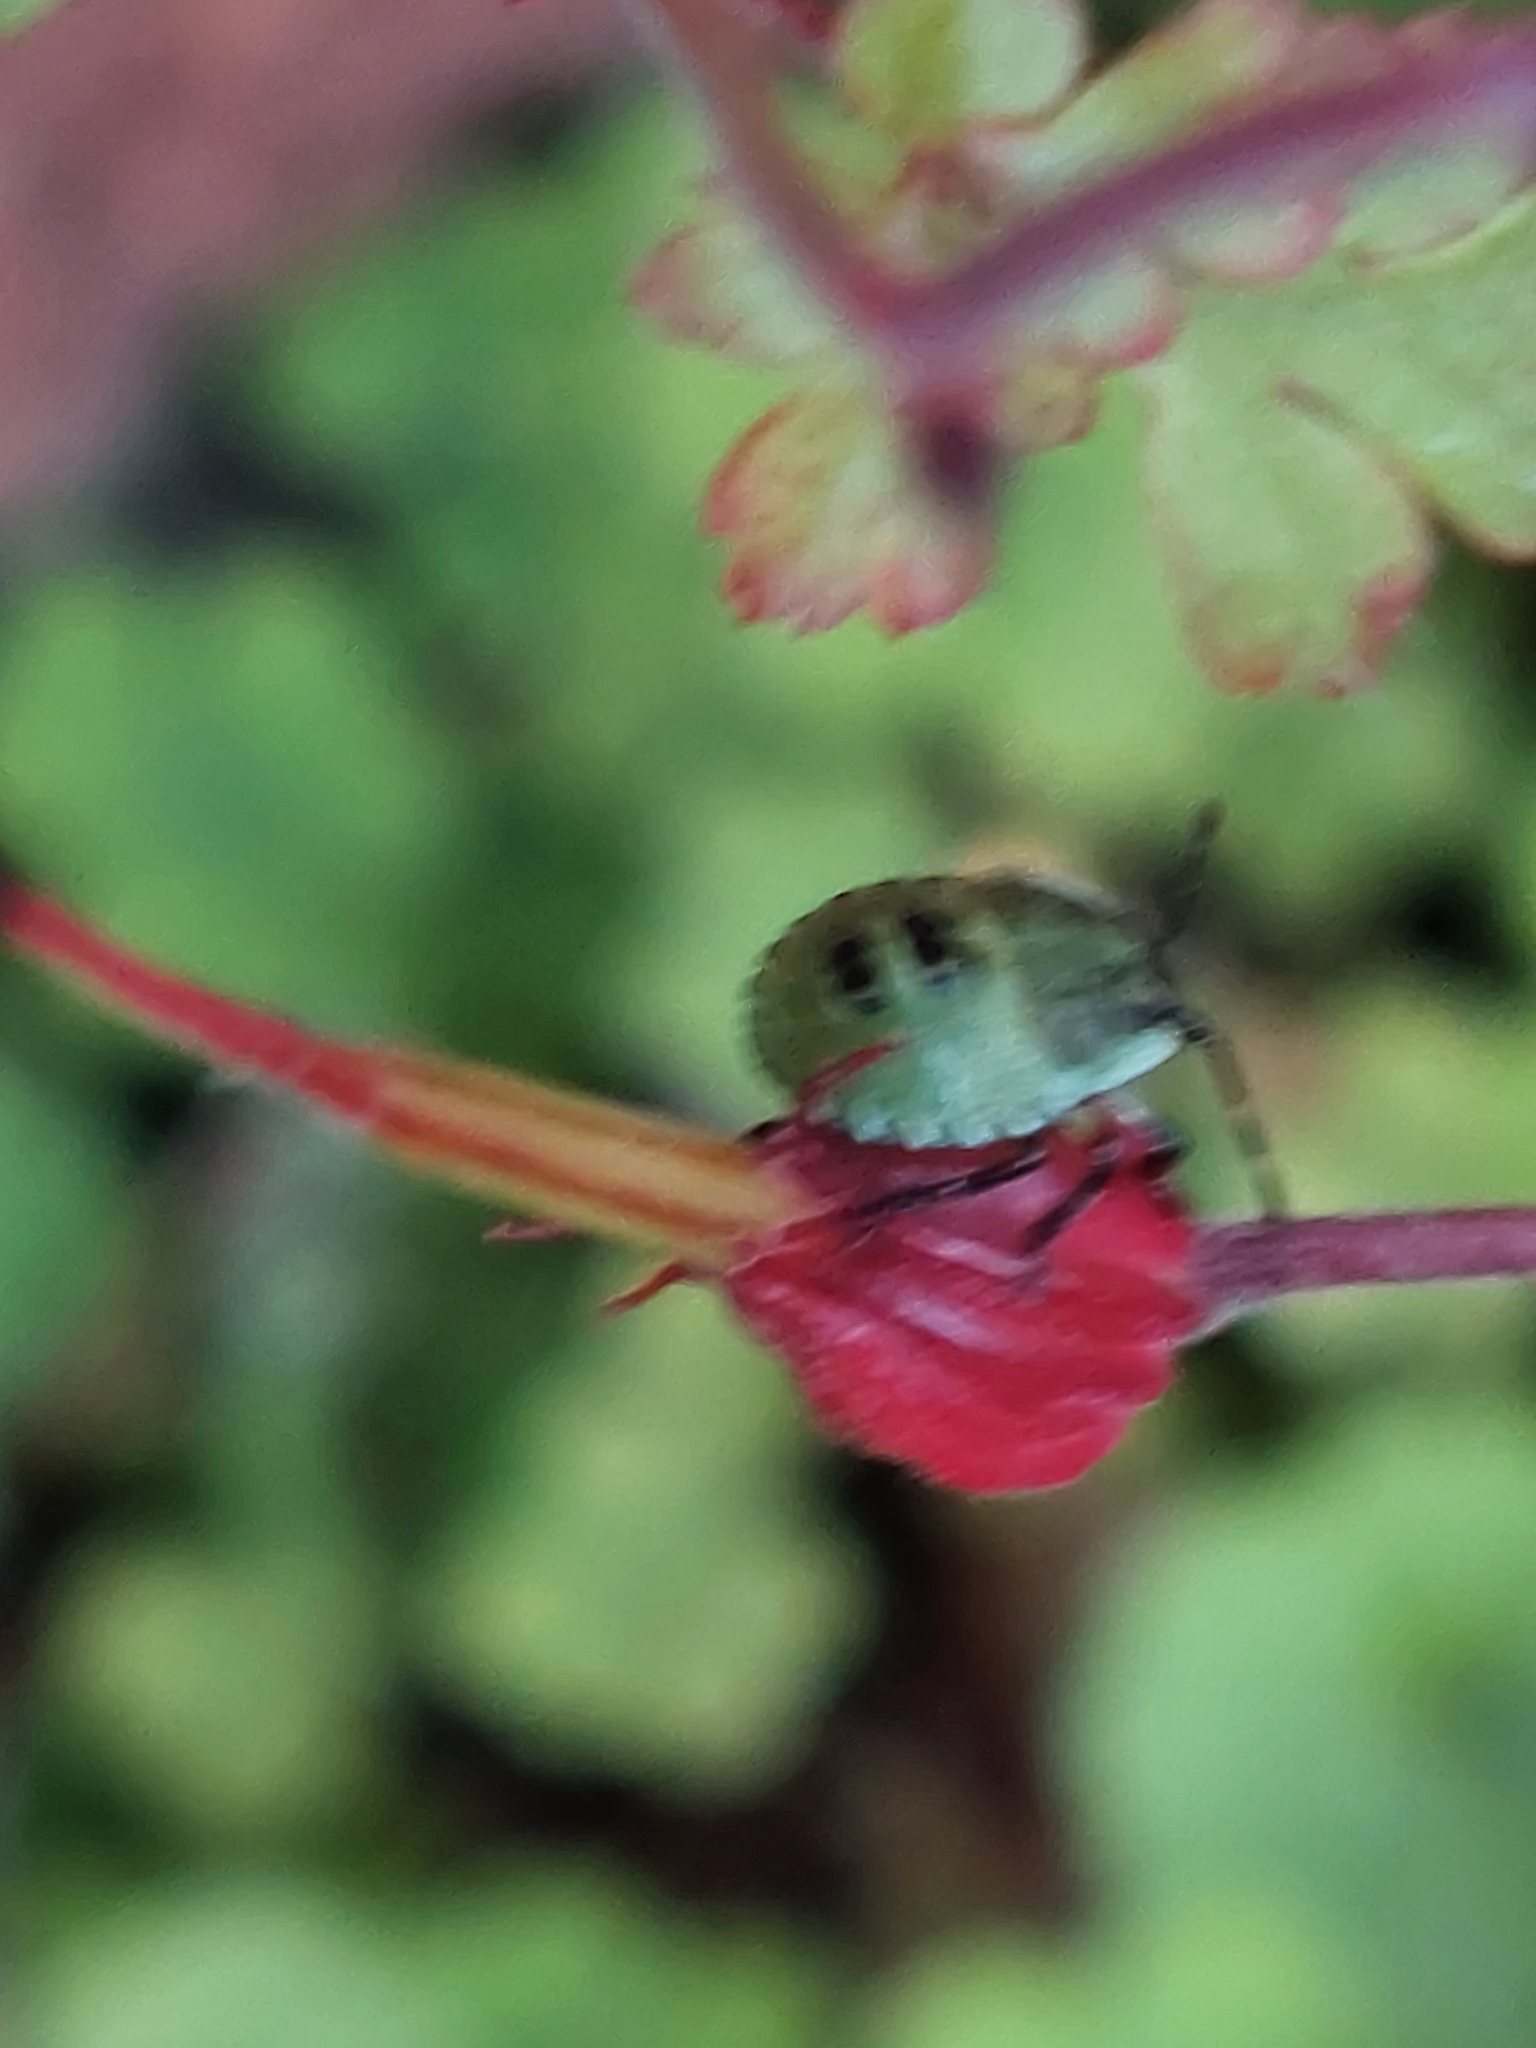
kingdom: Animalia
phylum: Arthropoda
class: Insecta
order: Hemiptera
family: Pentatomidae
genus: Palomena
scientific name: Palomena prasina
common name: Green shieldbug
